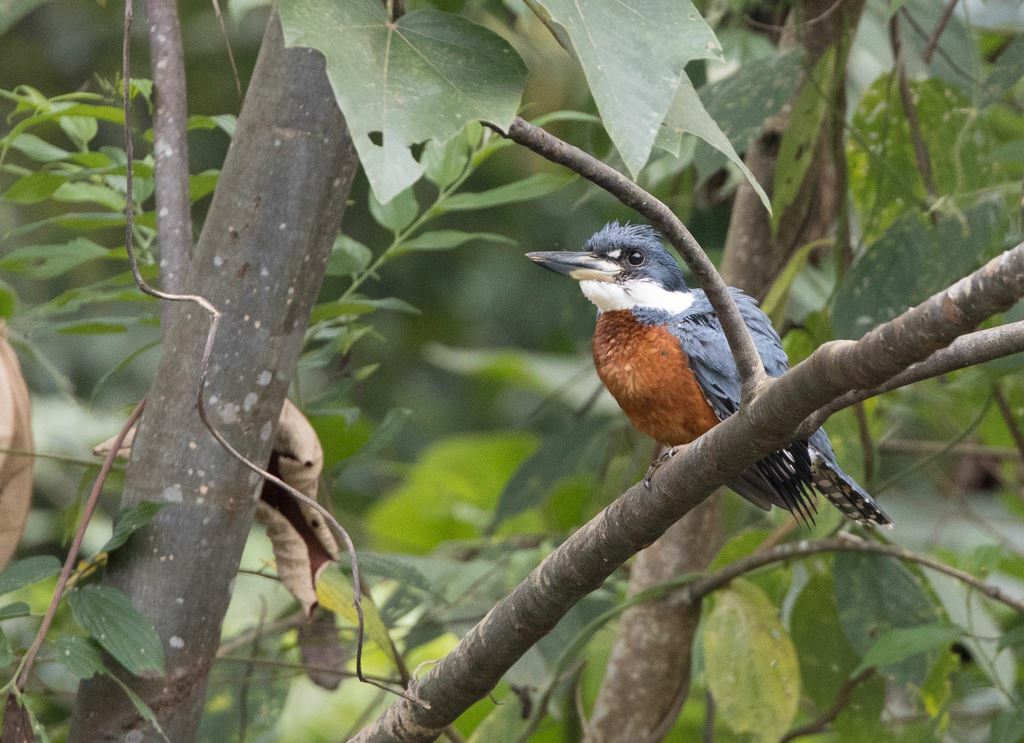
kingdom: Animalia
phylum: Chordata
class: Aves
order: Coraciiformes
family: Alcedinidae
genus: Megaceryle
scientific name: Megaceryle torquata
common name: Ringed kingfisher
